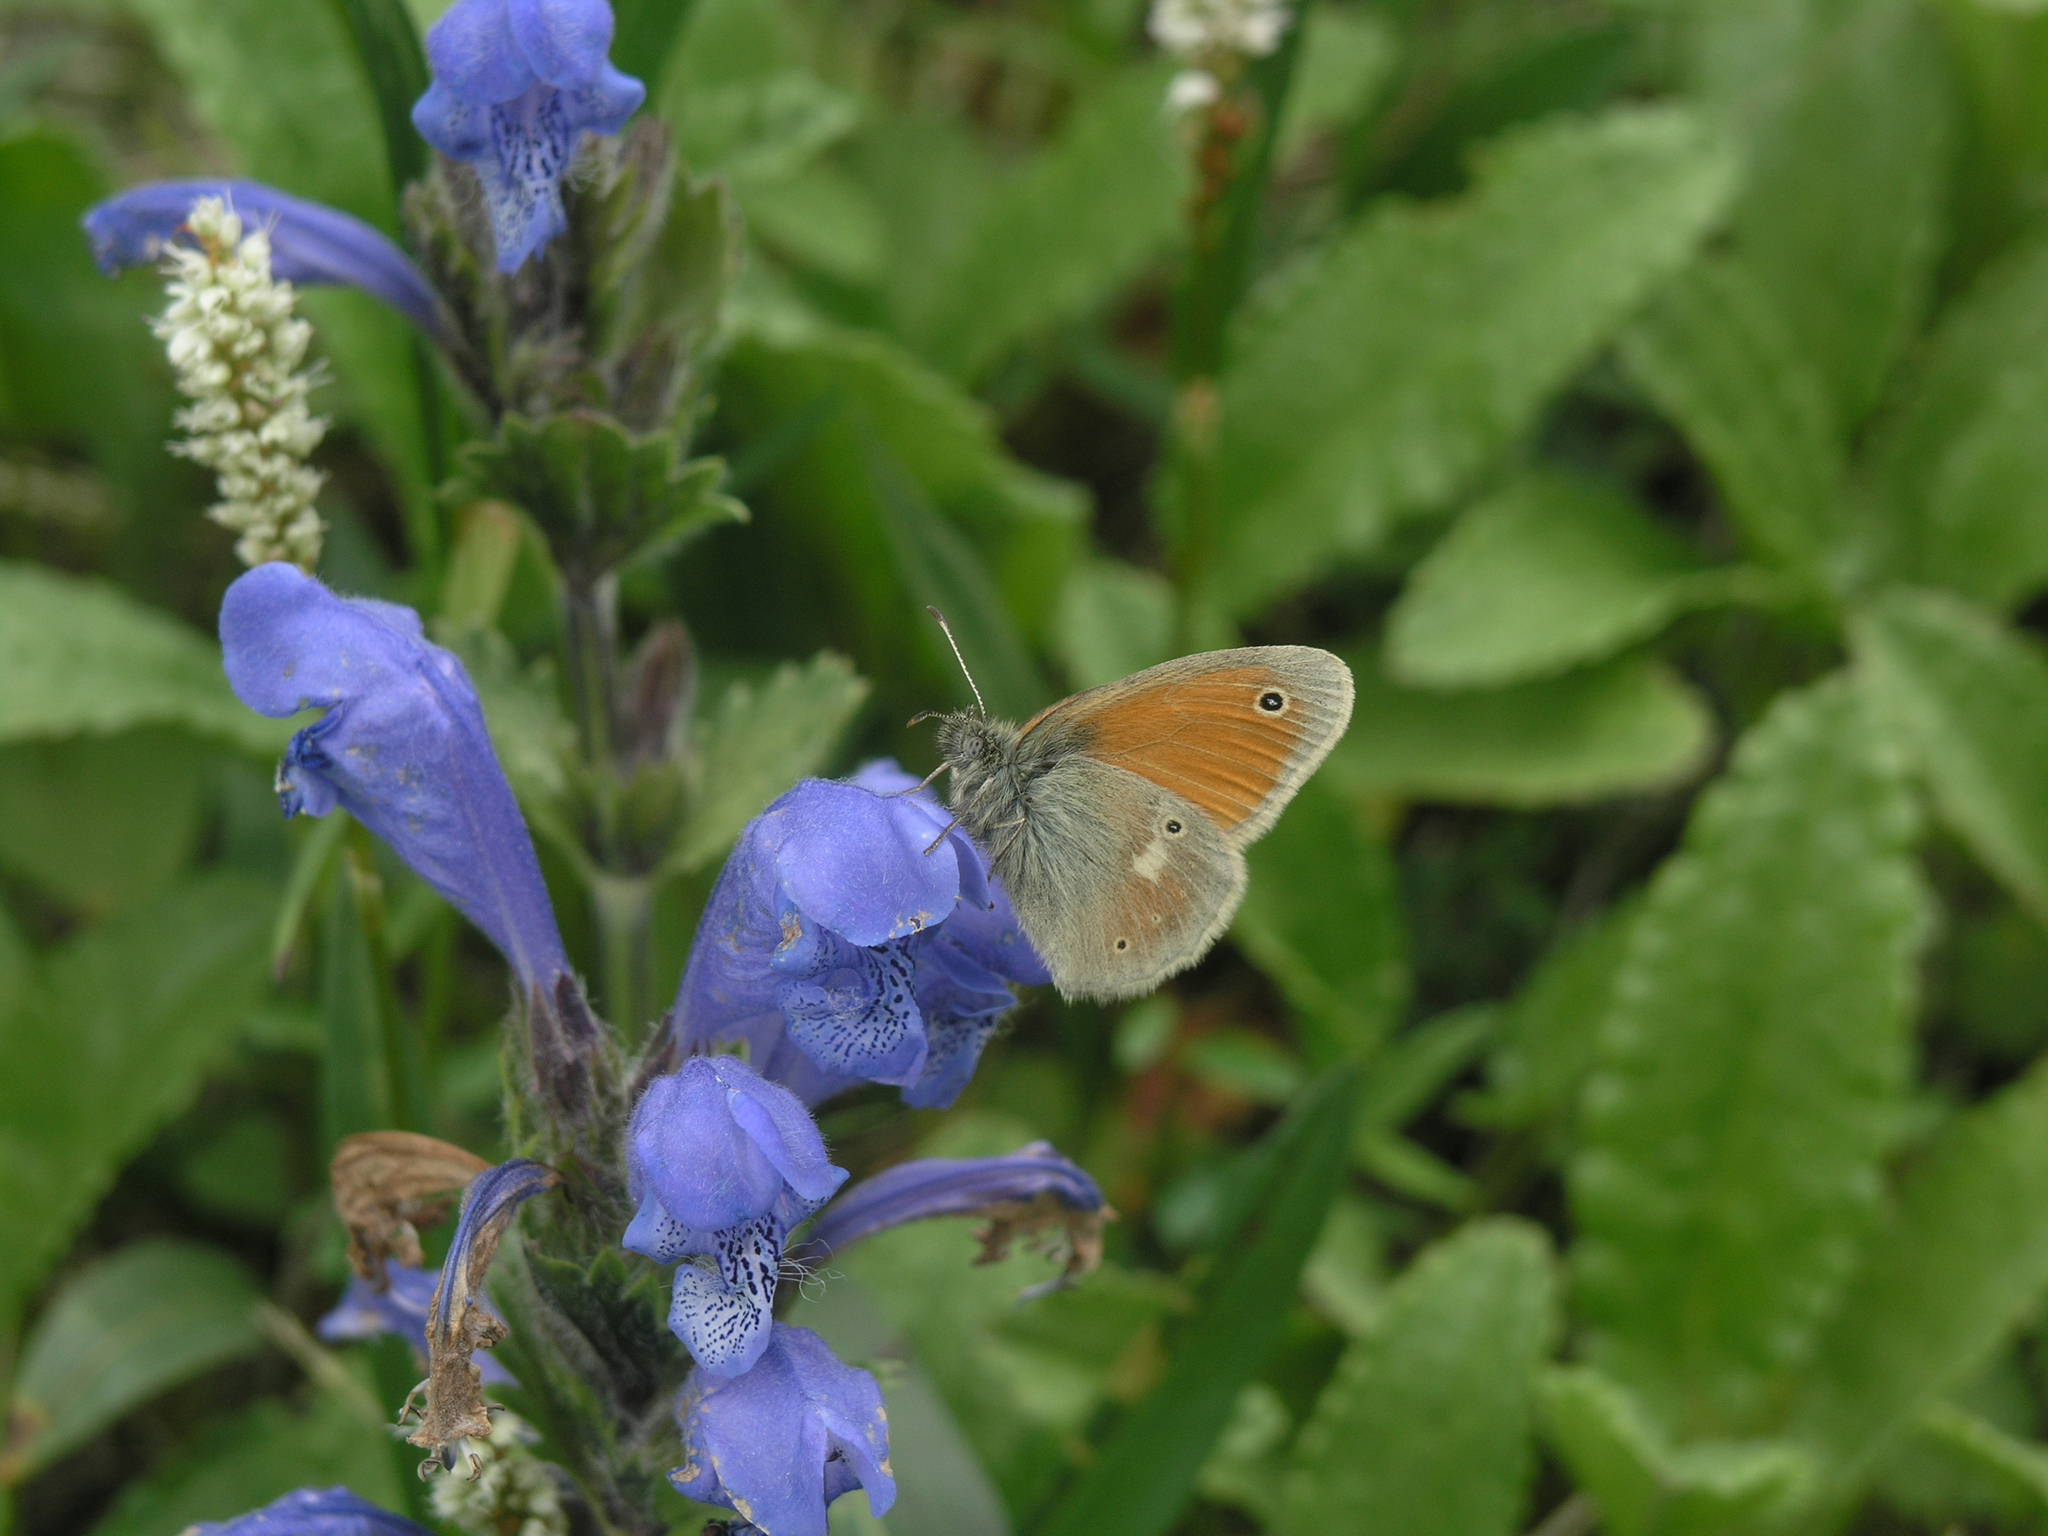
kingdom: Animalia
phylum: Arthropoda
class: Insecta
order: Lepidoptera
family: Nymphalidae
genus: Coenonympha
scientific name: Coenonympha tullia
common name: Large heath
